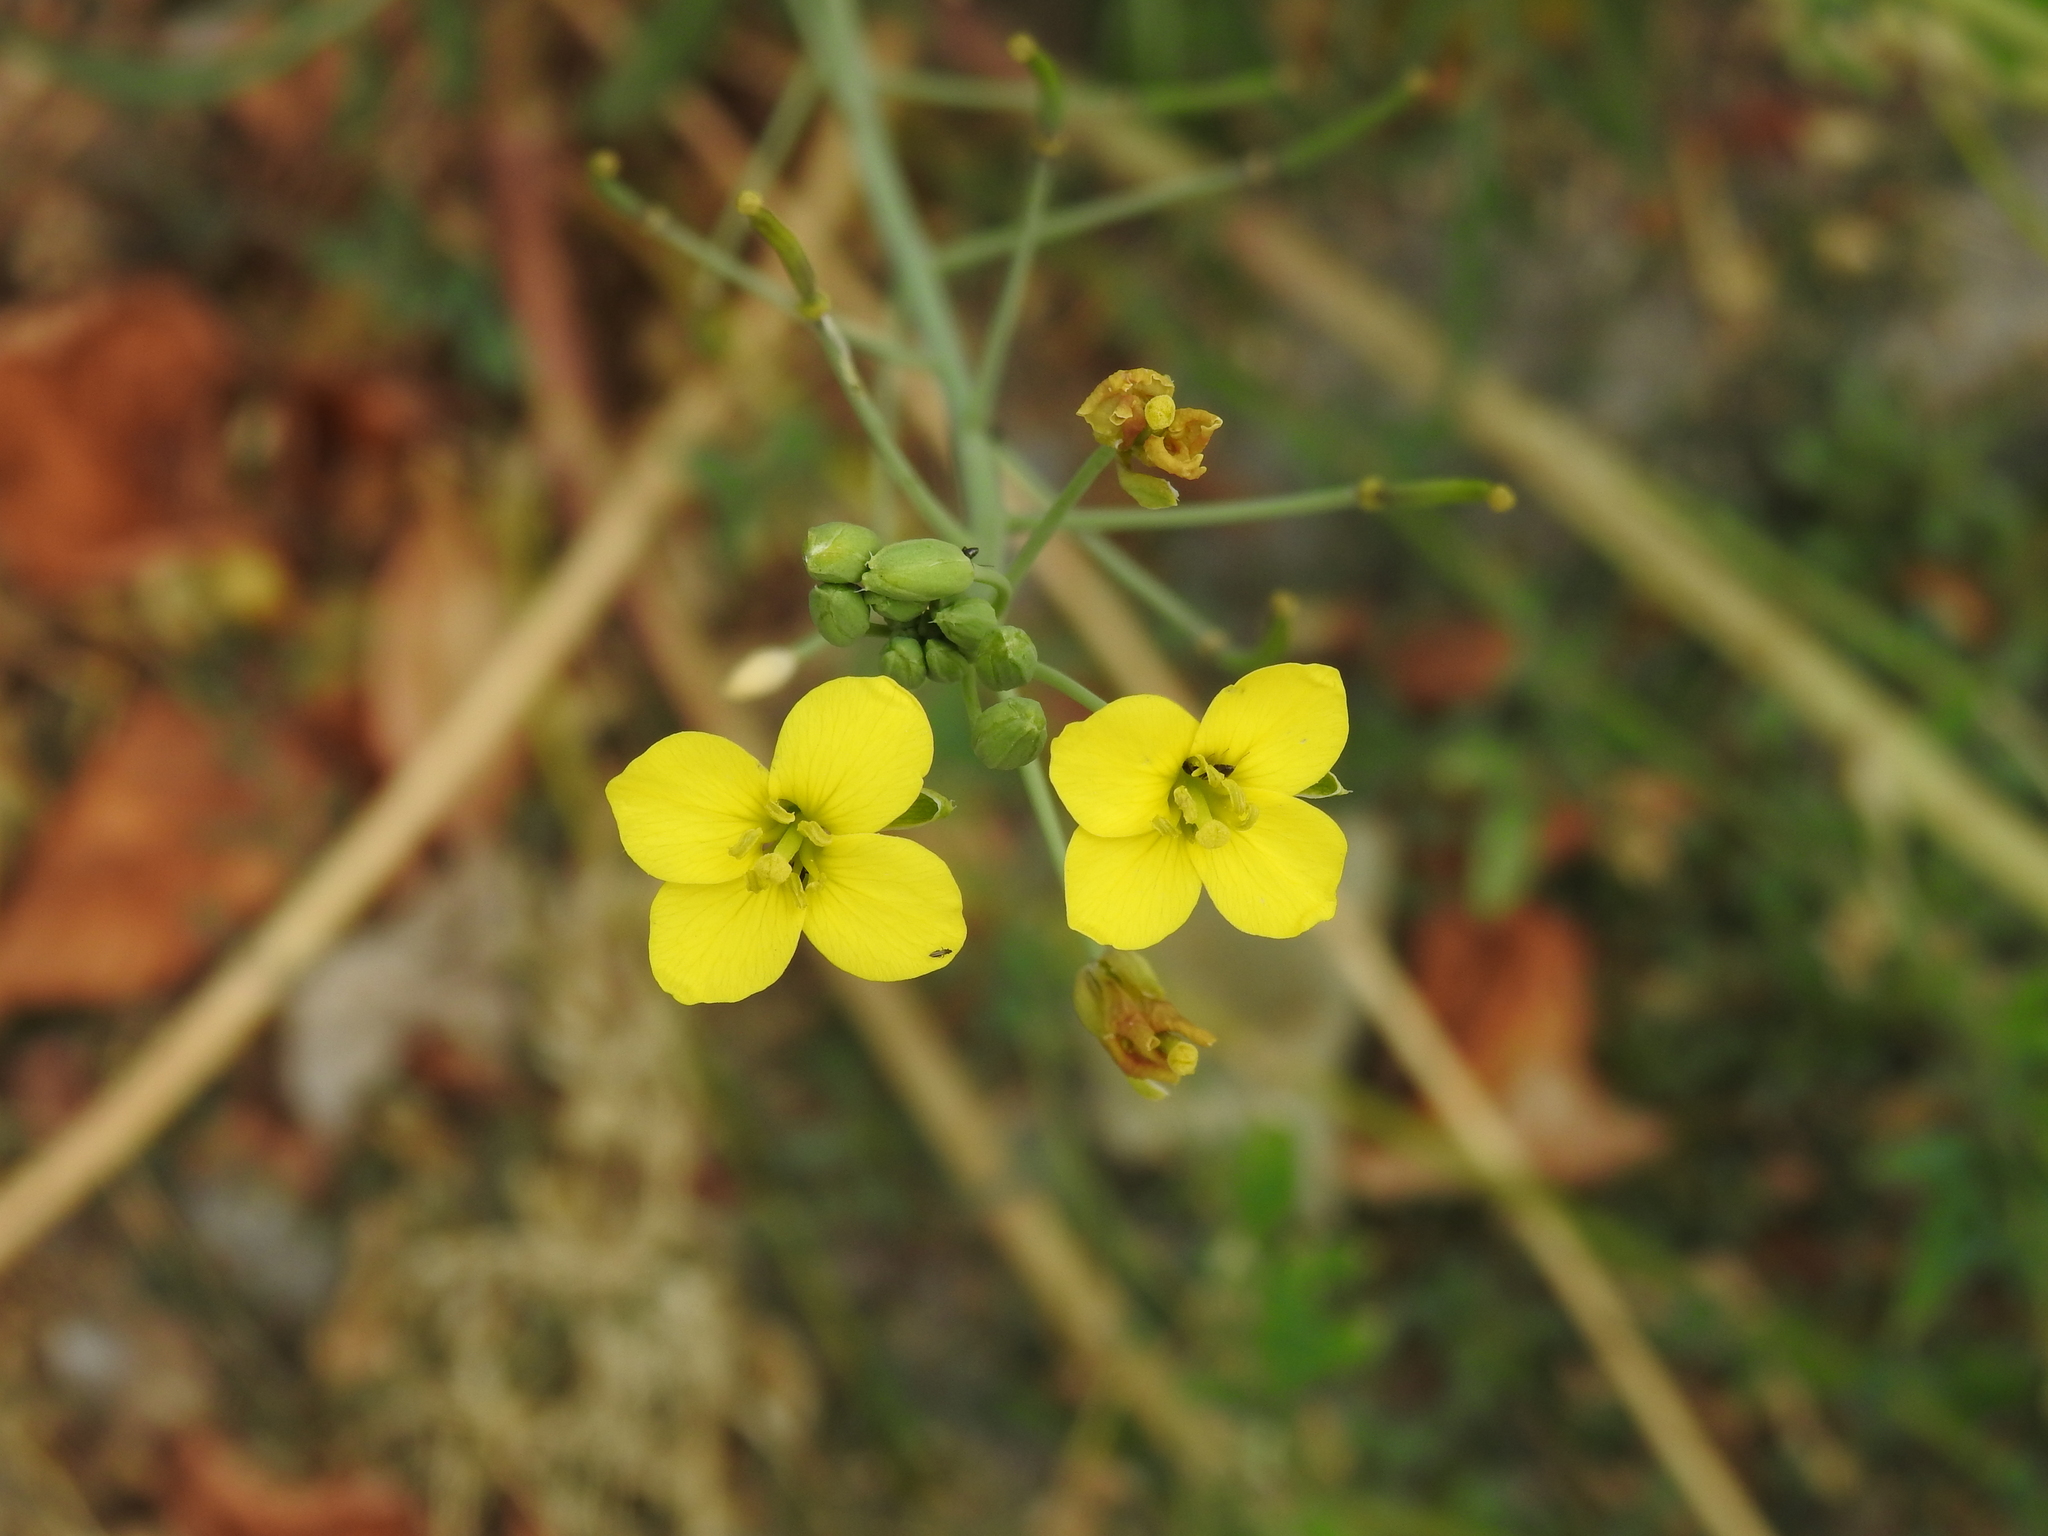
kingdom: Plantae
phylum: Tracheophyta
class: Magnoliopsida
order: Brassicales
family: Brassicaceae
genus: Diplotaxis
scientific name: Diplotaxis tenuifolia
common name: Perennial wall-rocket
